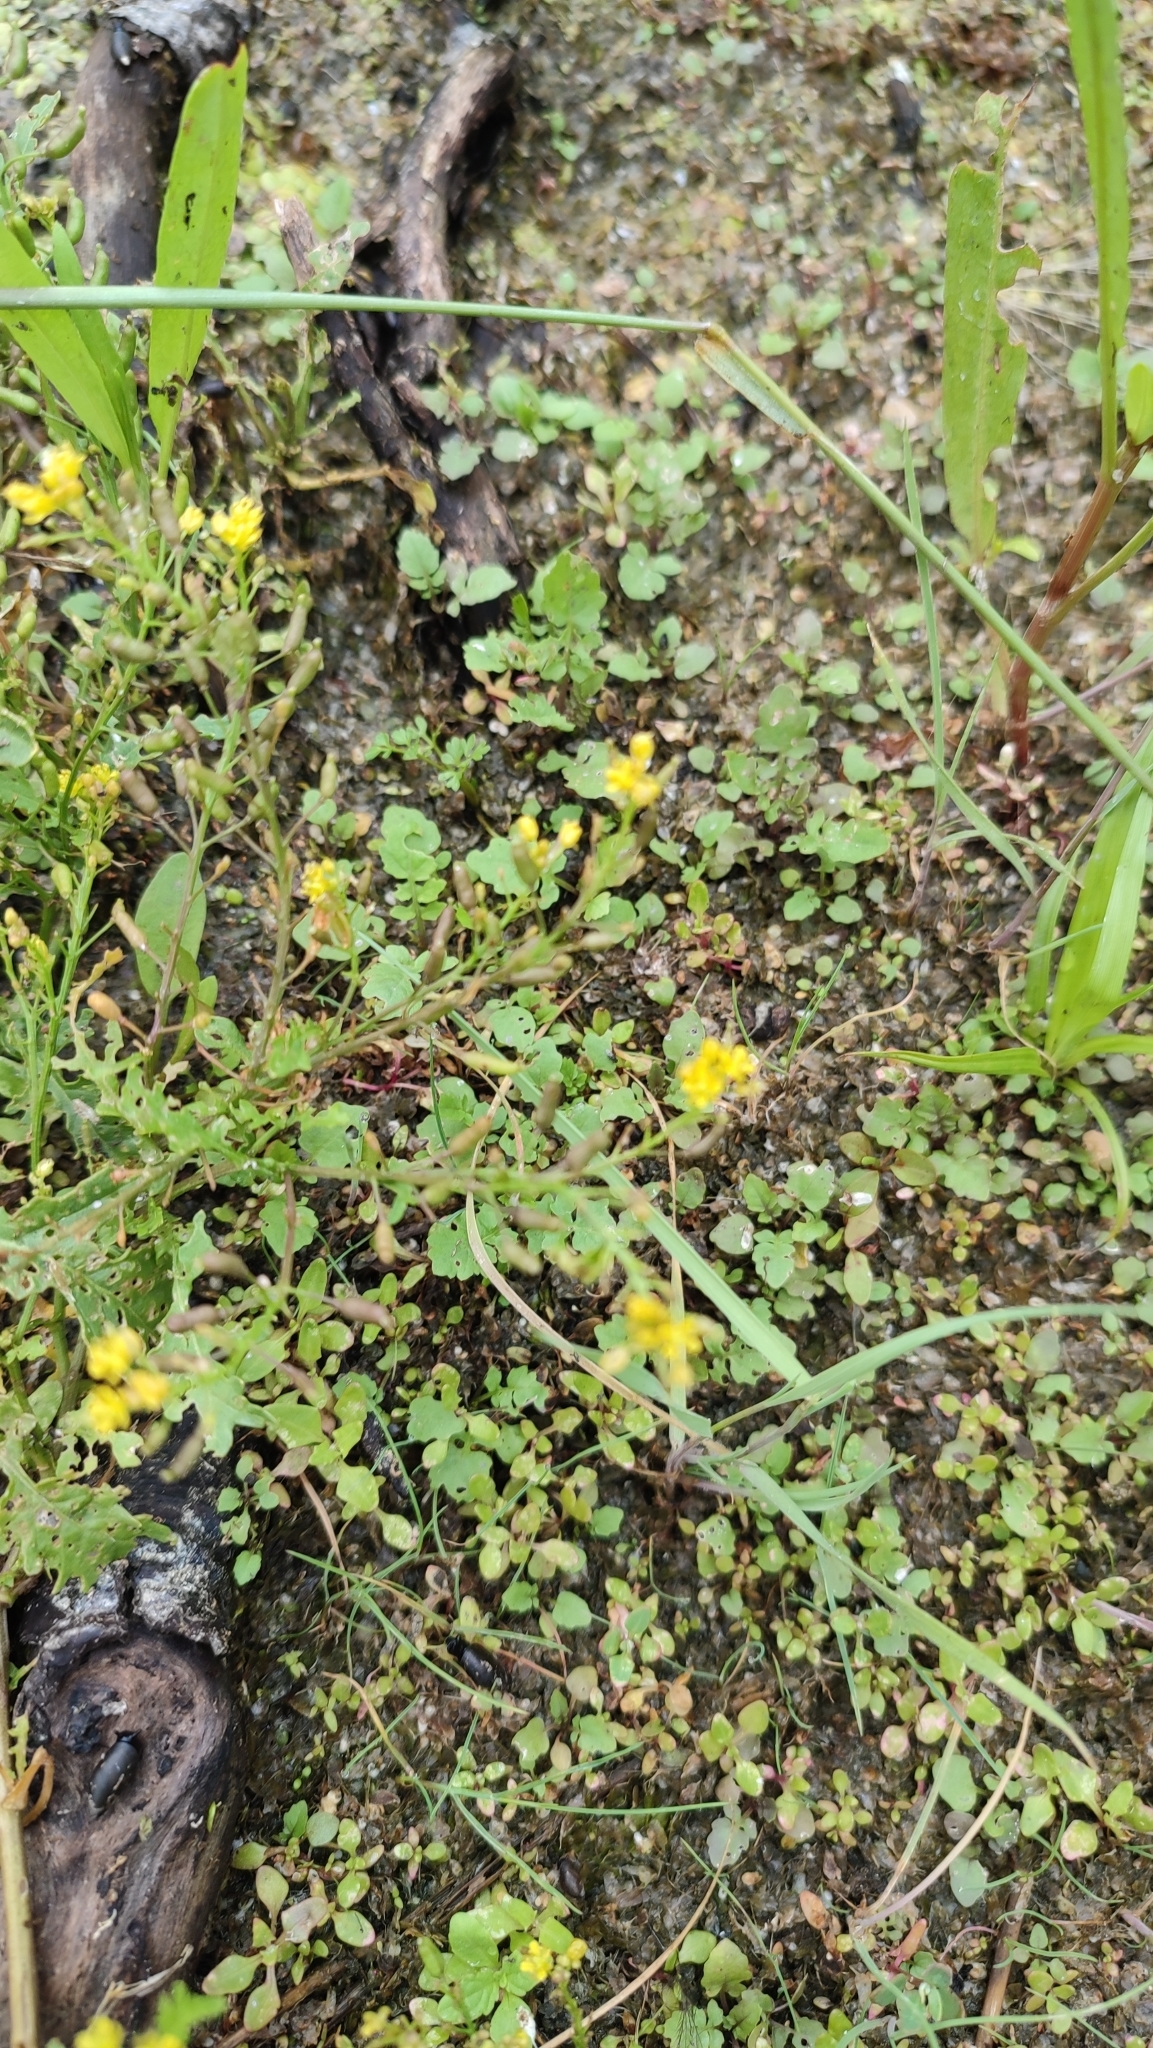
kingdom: Plantae
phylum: Tracheophyta
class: Magnoliopsida
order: Brassicales
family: Brassicaceae
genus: Rorippa
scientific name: Rorippa palustris
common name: Marsh yellow-cress
